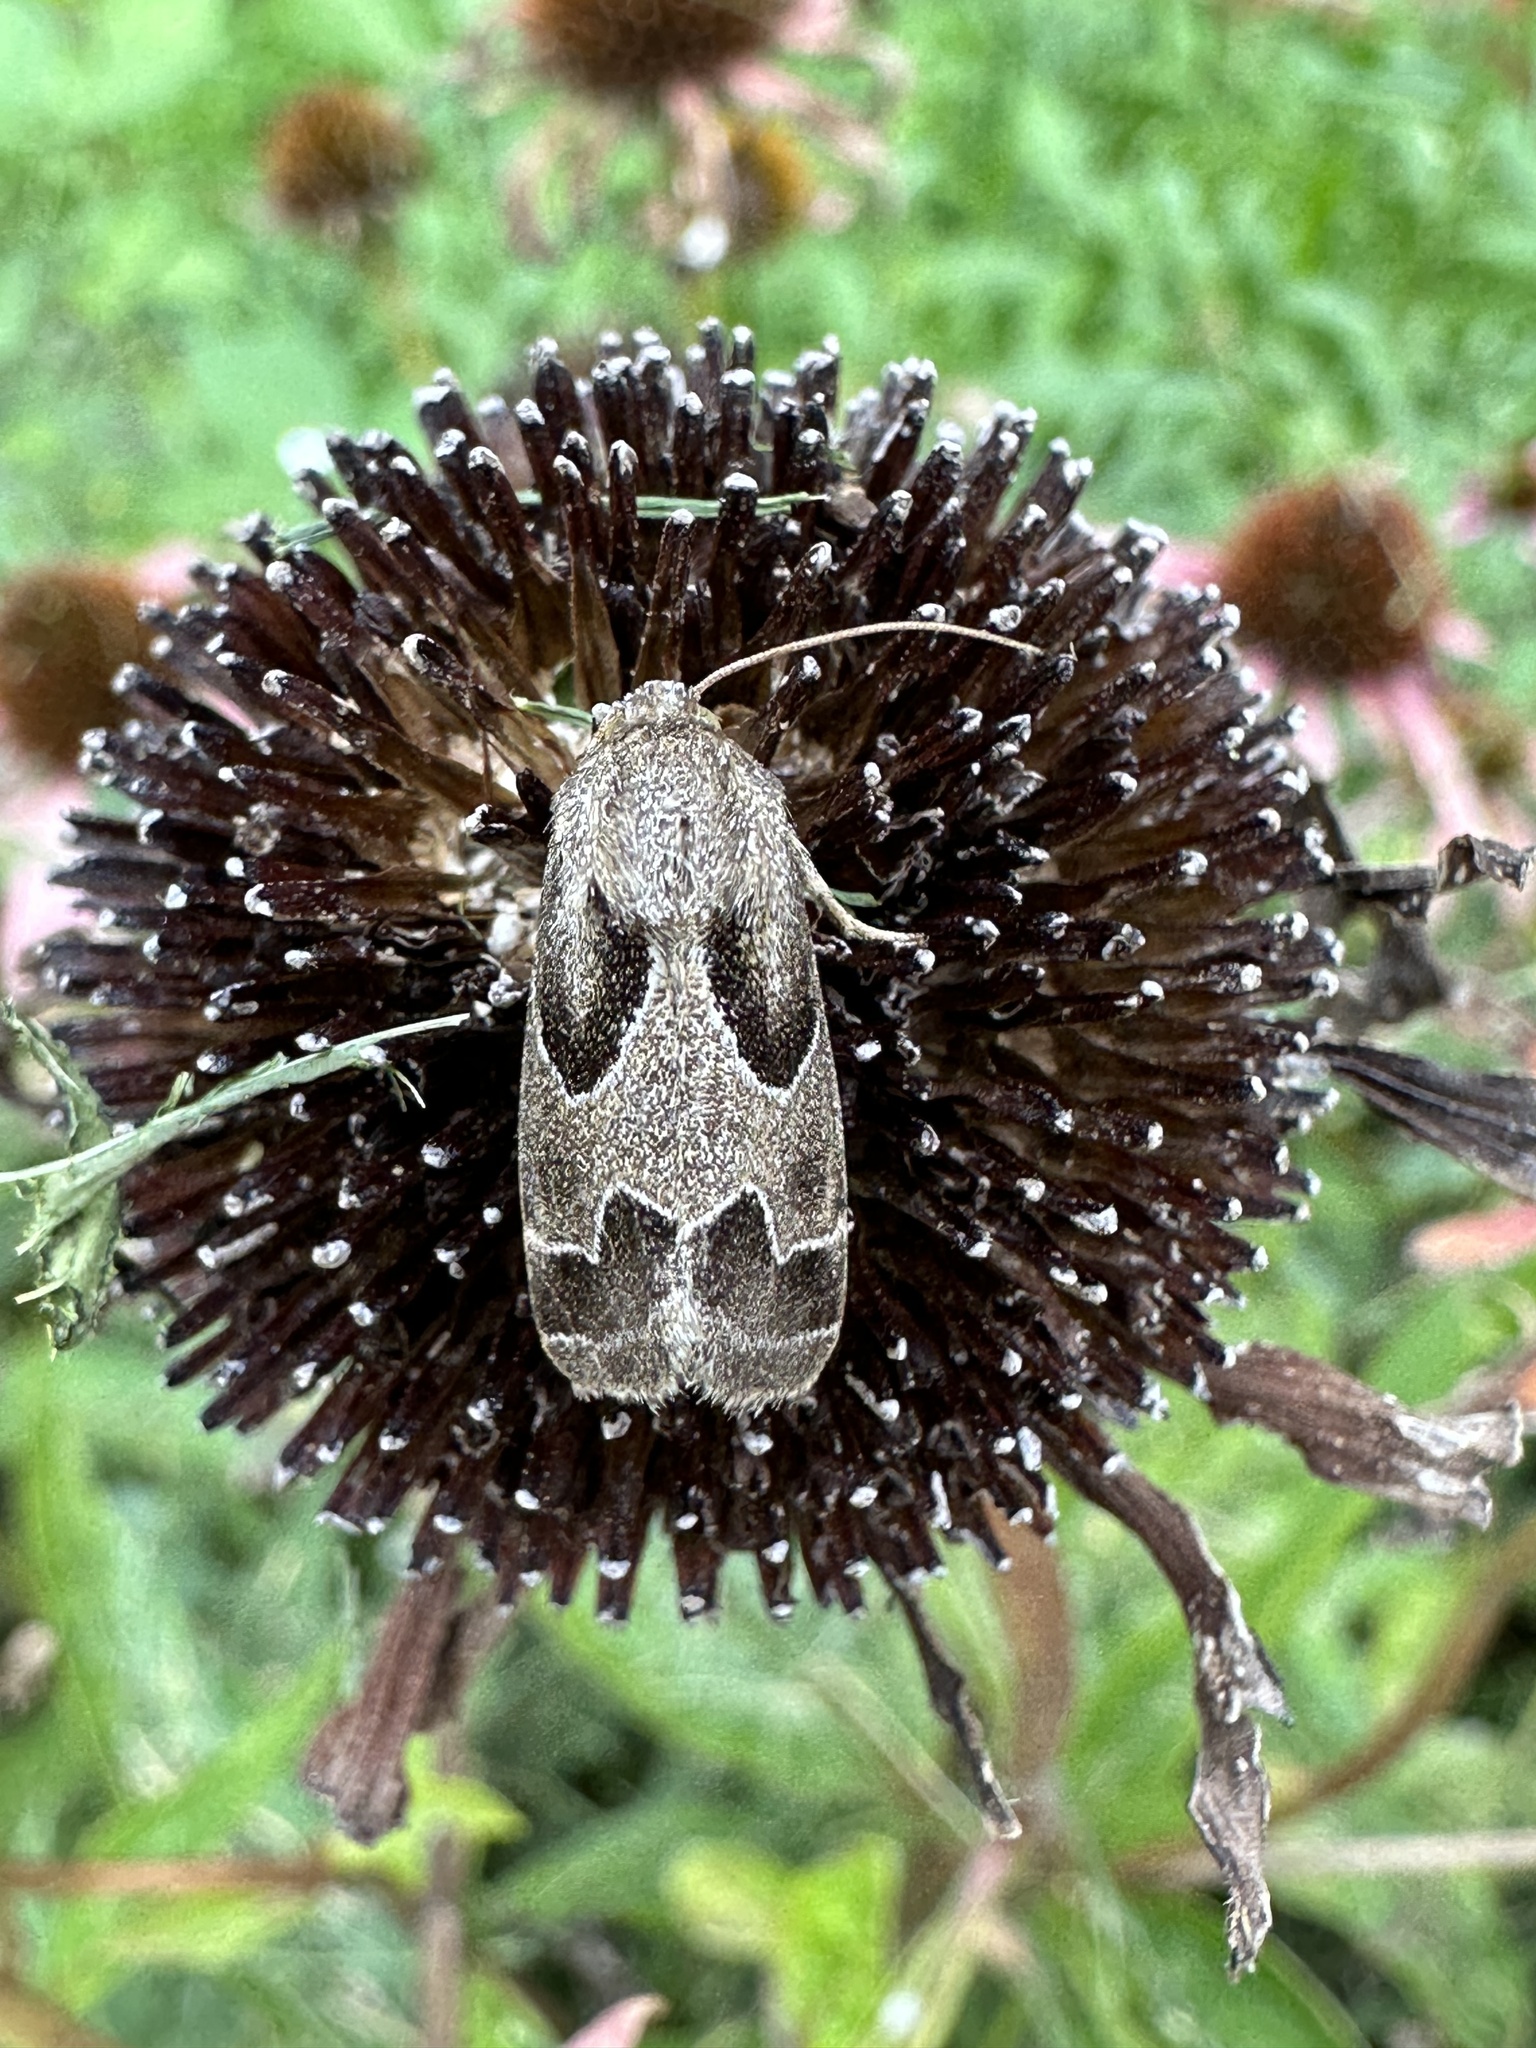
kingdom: Animalia
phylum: Arthropoda
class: Insecta
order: Lepidoptera
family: Noctuidae
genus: Schinia
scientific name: Schinia rivulosa
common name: Scarce meal-moth
